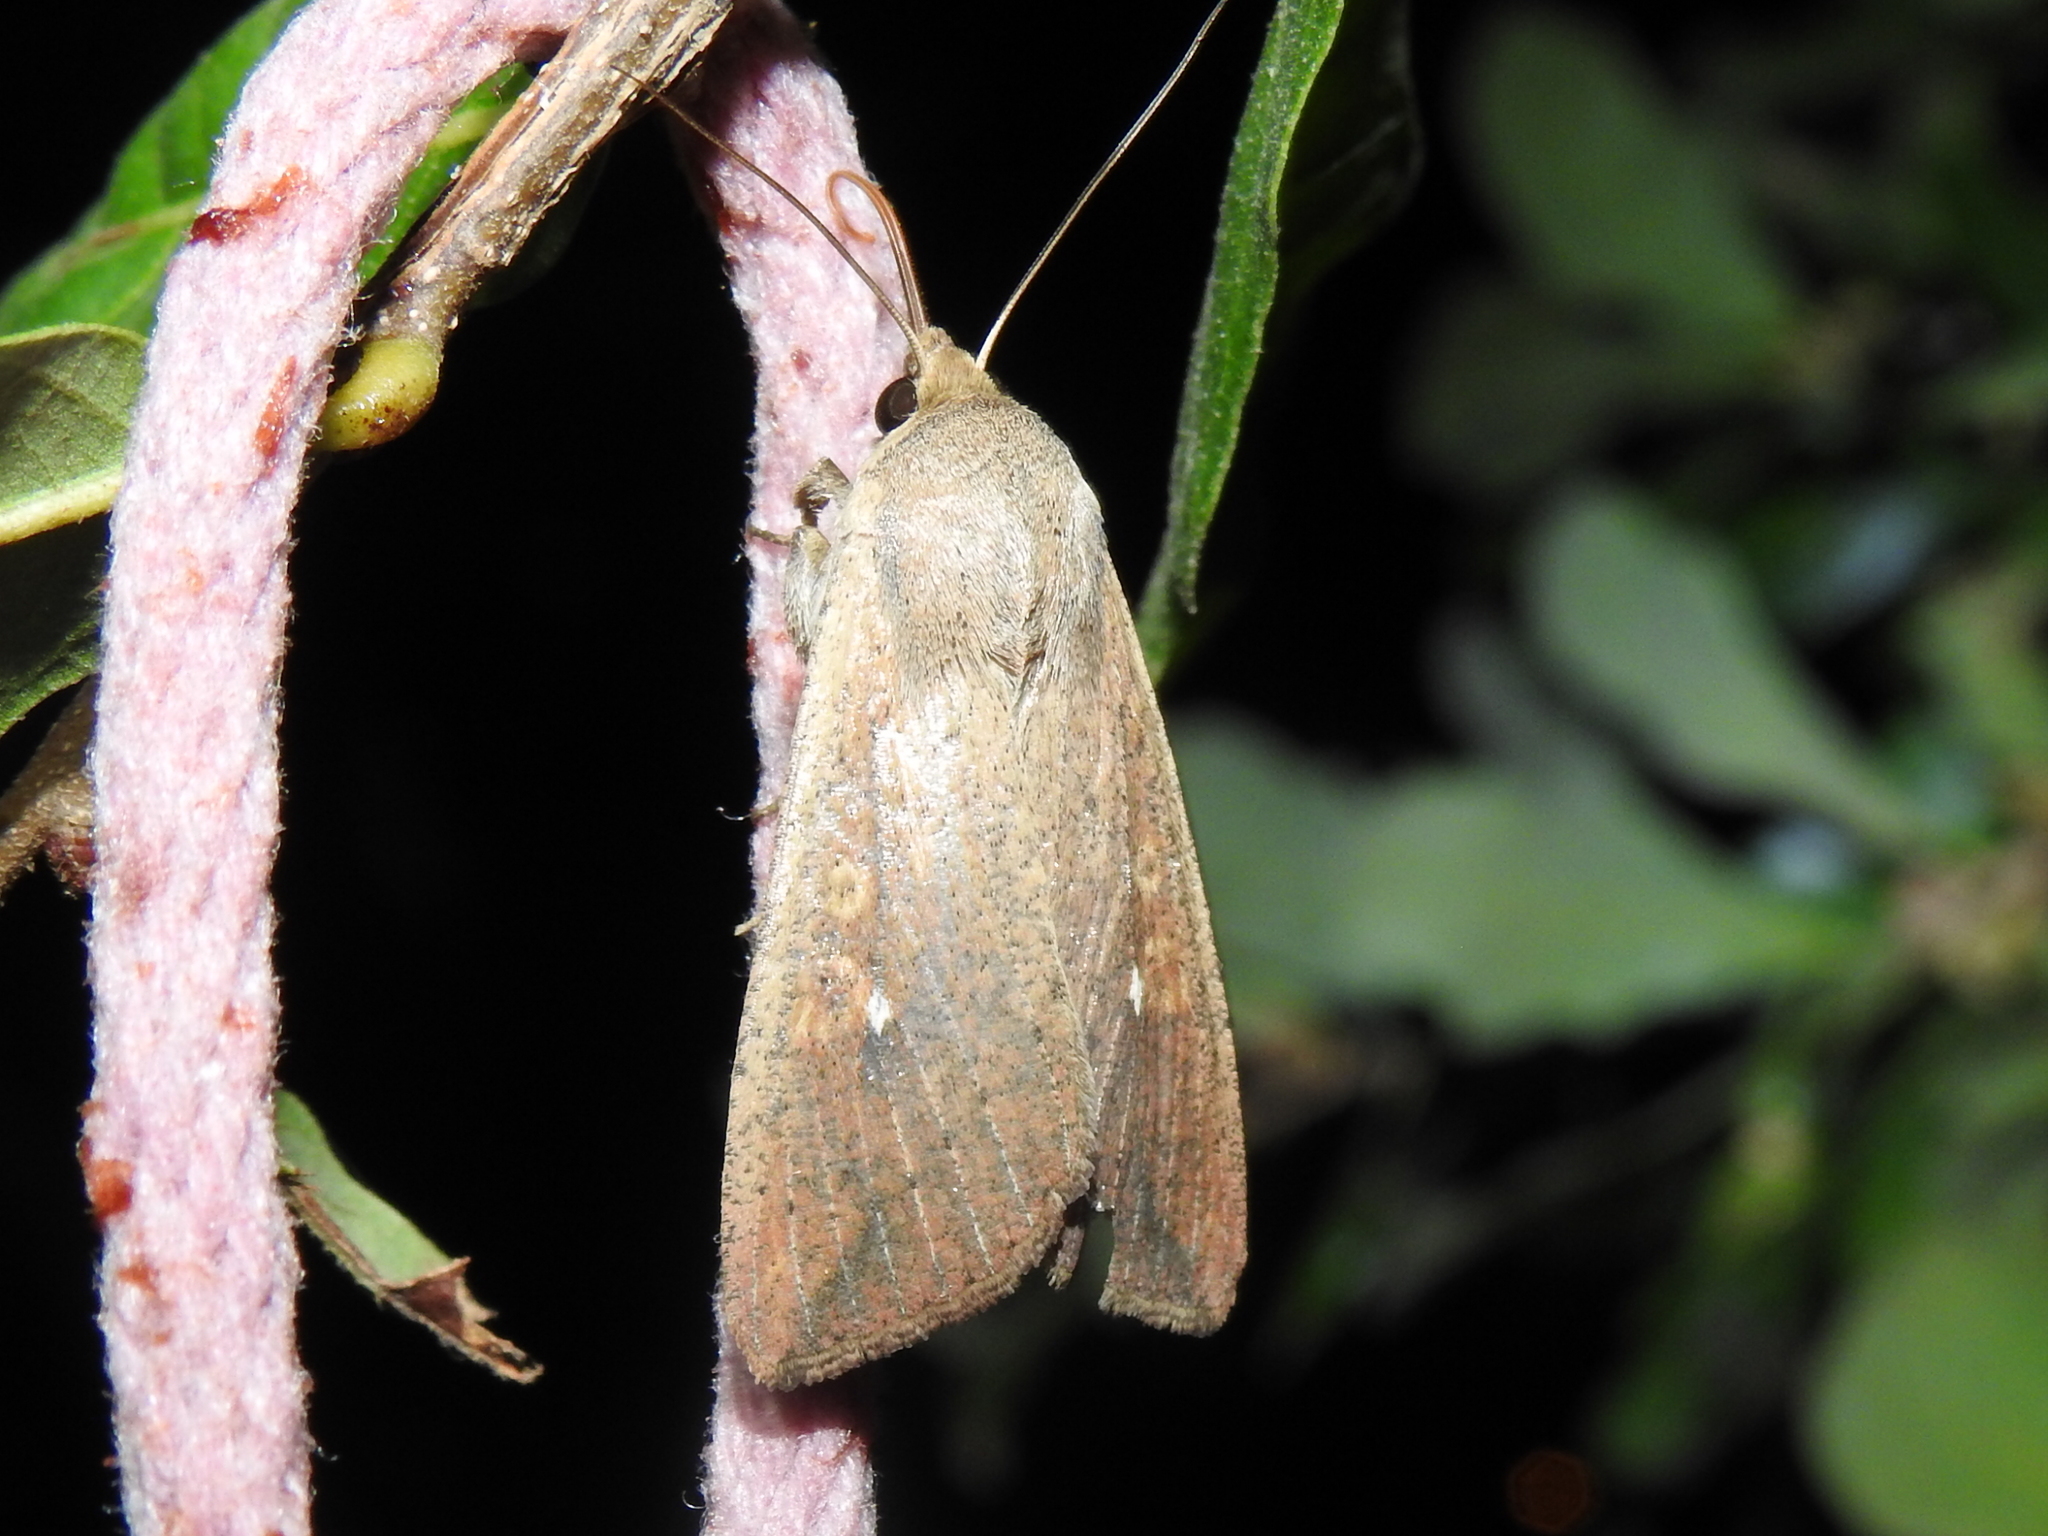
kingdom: Animalia
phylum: Arthropoda
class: Insecta
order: Lepidoptera
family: Noctuidae
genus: Mythimna
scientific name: Mythimna unipuncta
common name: White-speck
